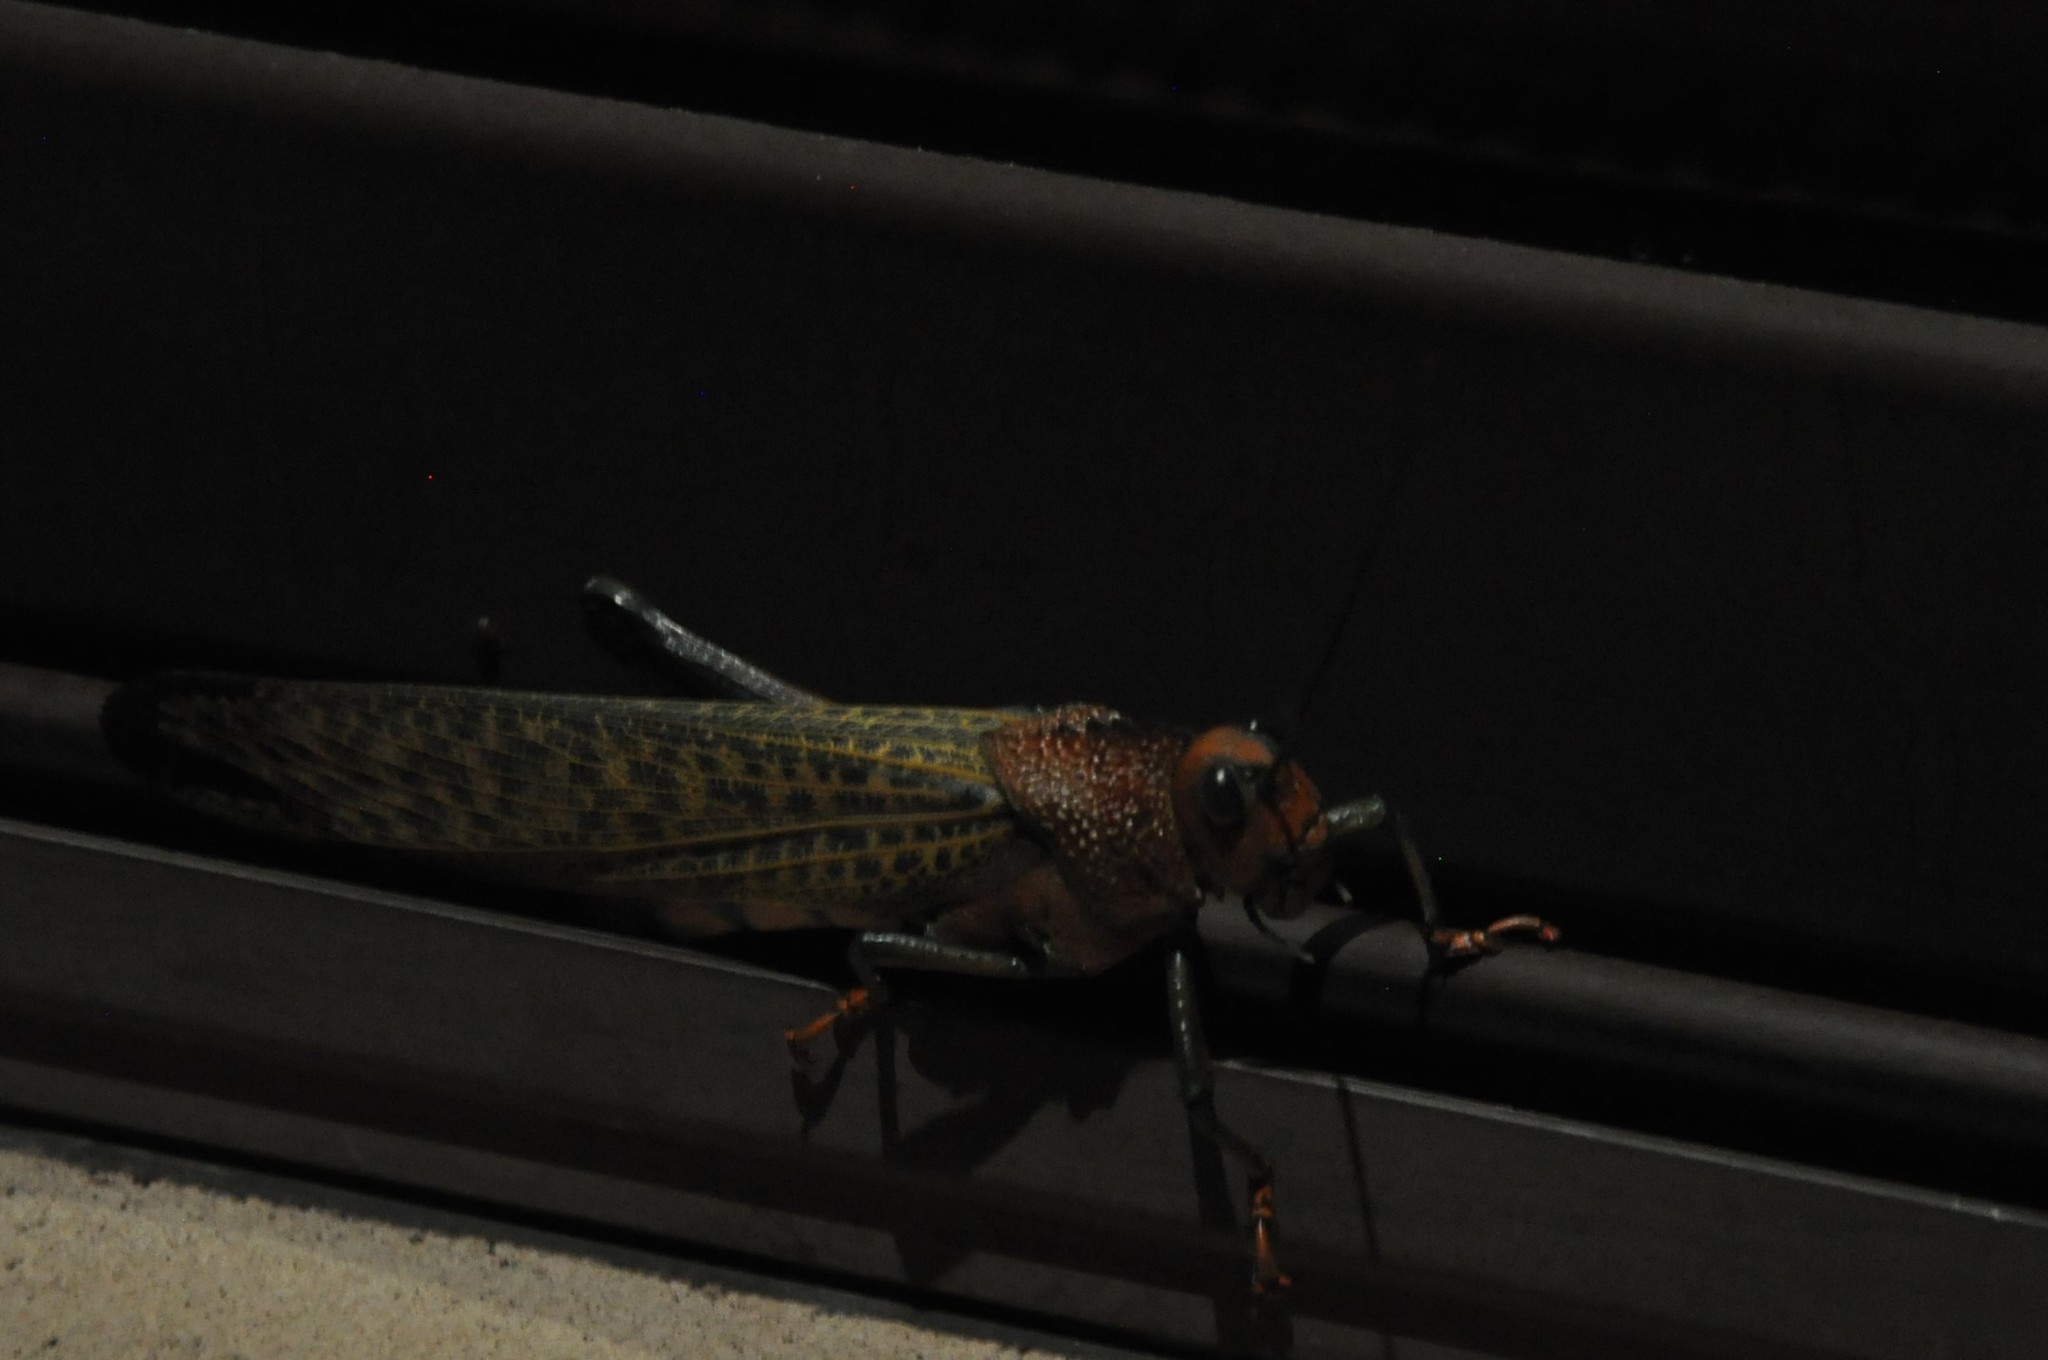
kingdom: Animalia
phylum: Arthropoda
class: Insecta
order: Orthoptera
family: Romaleidae
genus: Tropidacris
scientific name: Tropidacris cristata
